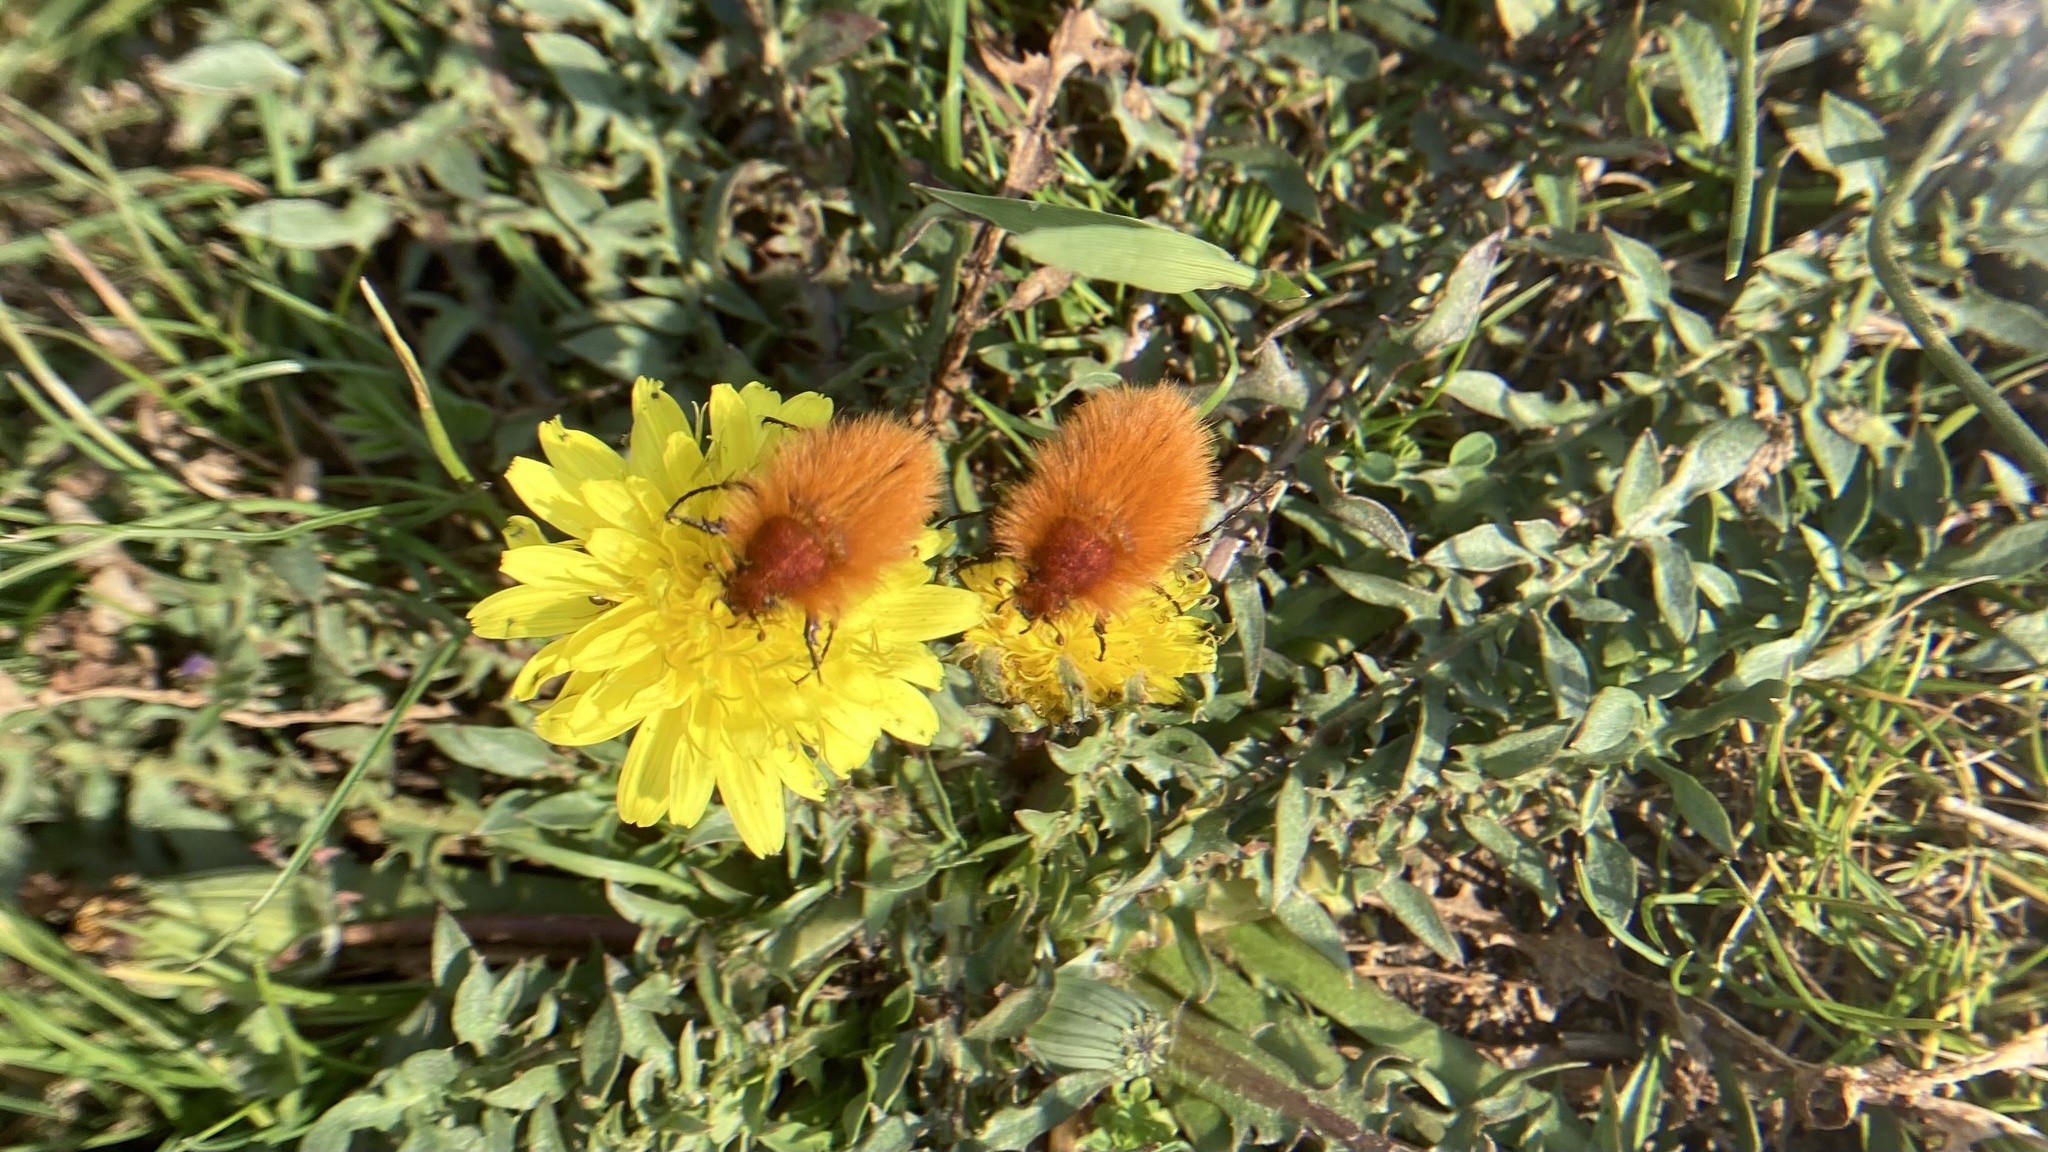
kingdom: Animalia
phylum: Arthropoda
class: Insecta
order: Coleoptera
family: Glaphyridae
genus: Pygopleurus
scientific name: Pygopleurus vulpes
